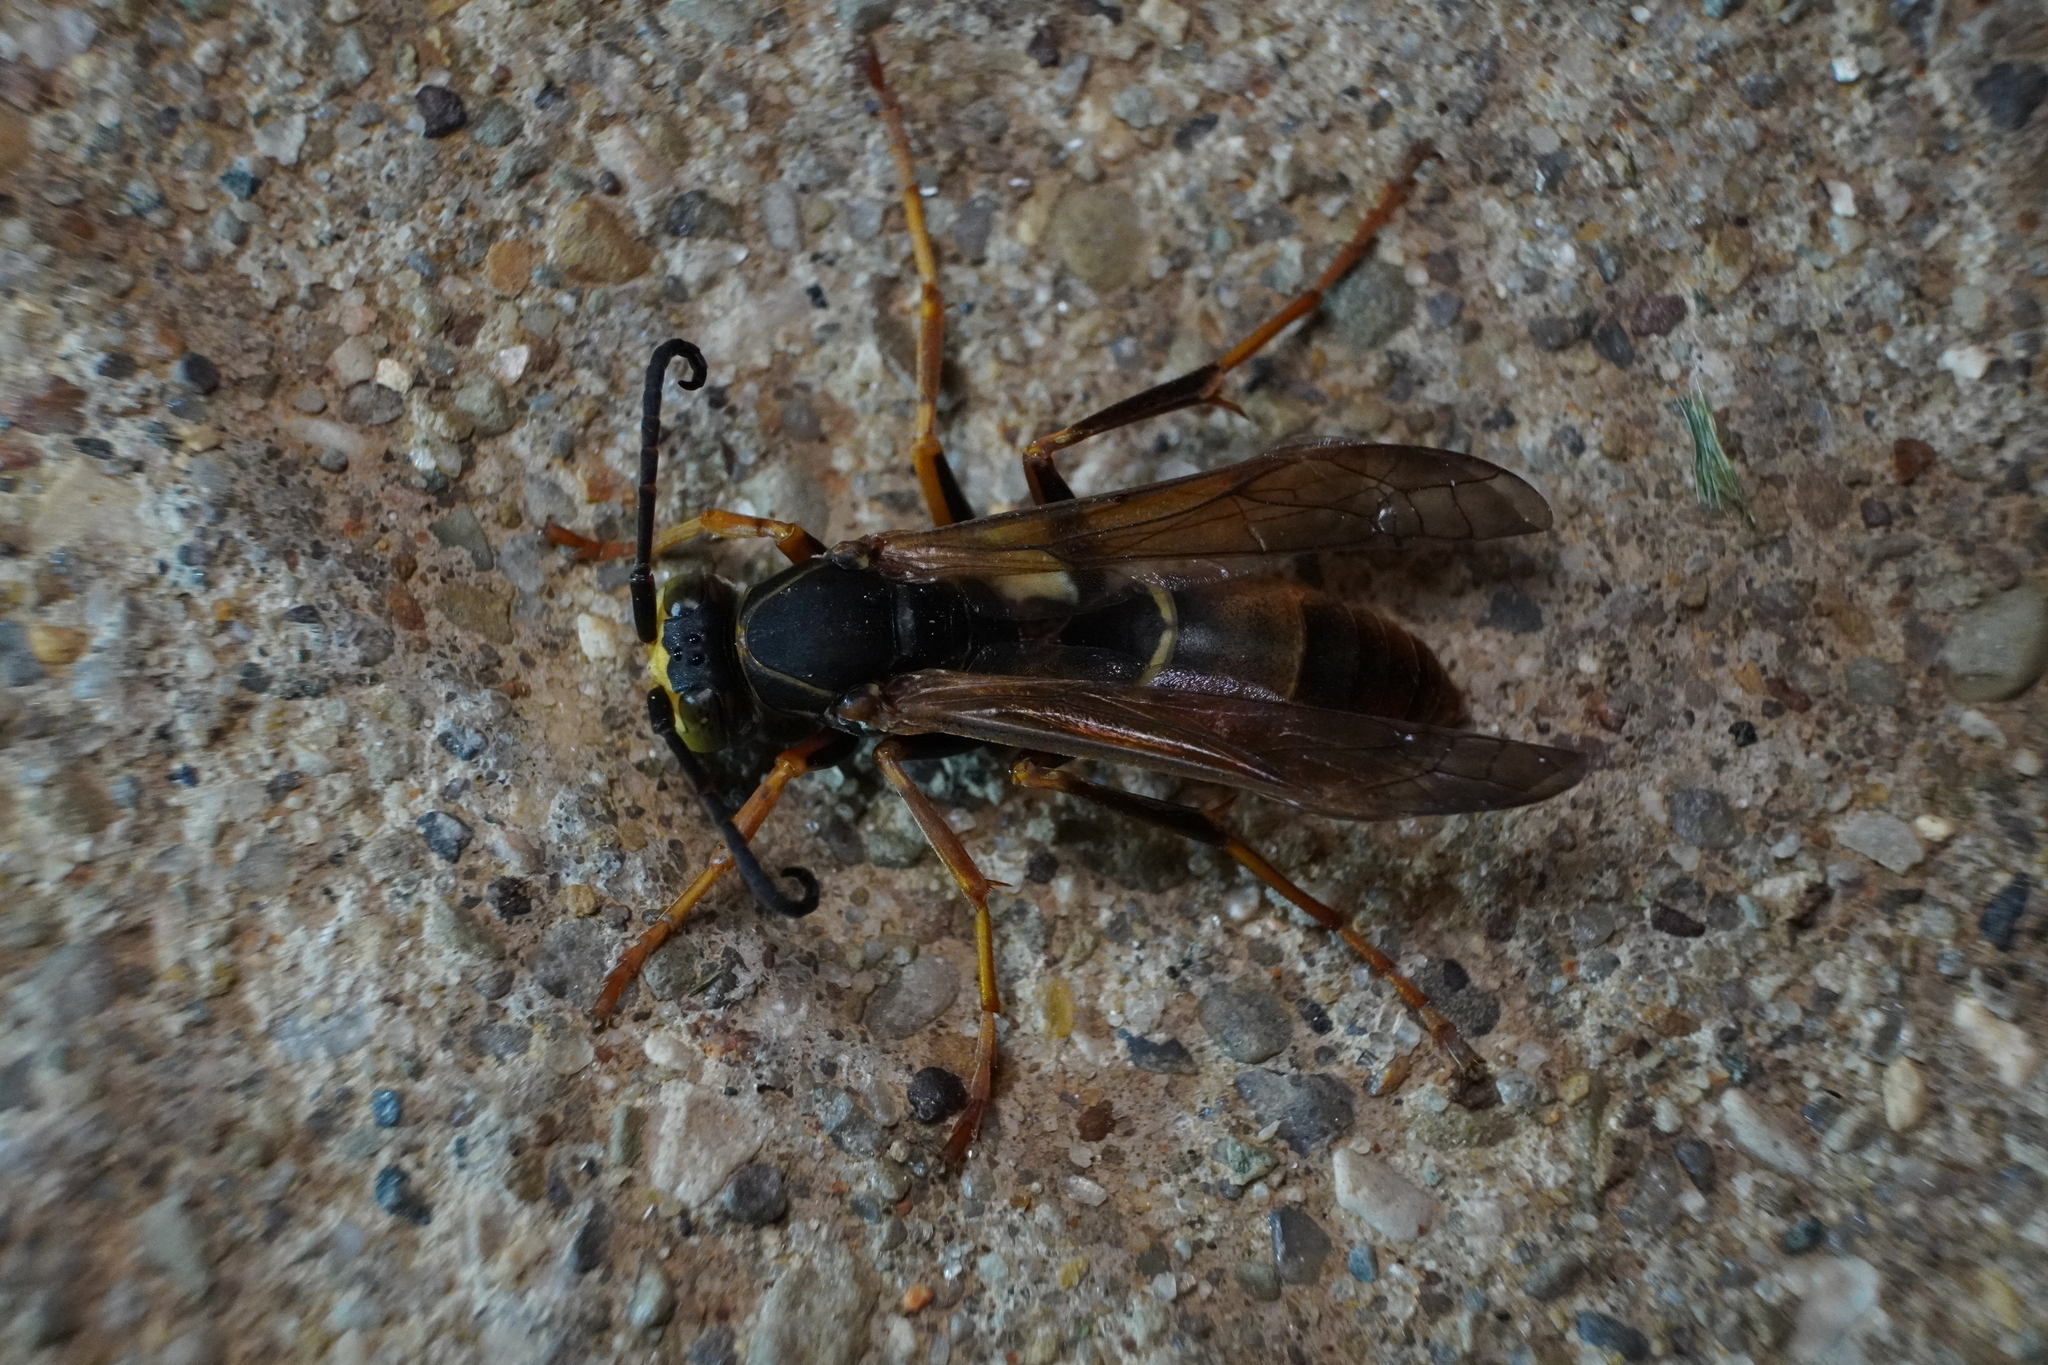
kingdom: Animalia
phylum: Arthropoda
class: Insecta
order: Hymenoptera
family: Eumenidae
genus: Polistes
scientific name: Polistes fuscatus
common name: Dark paper wasp
